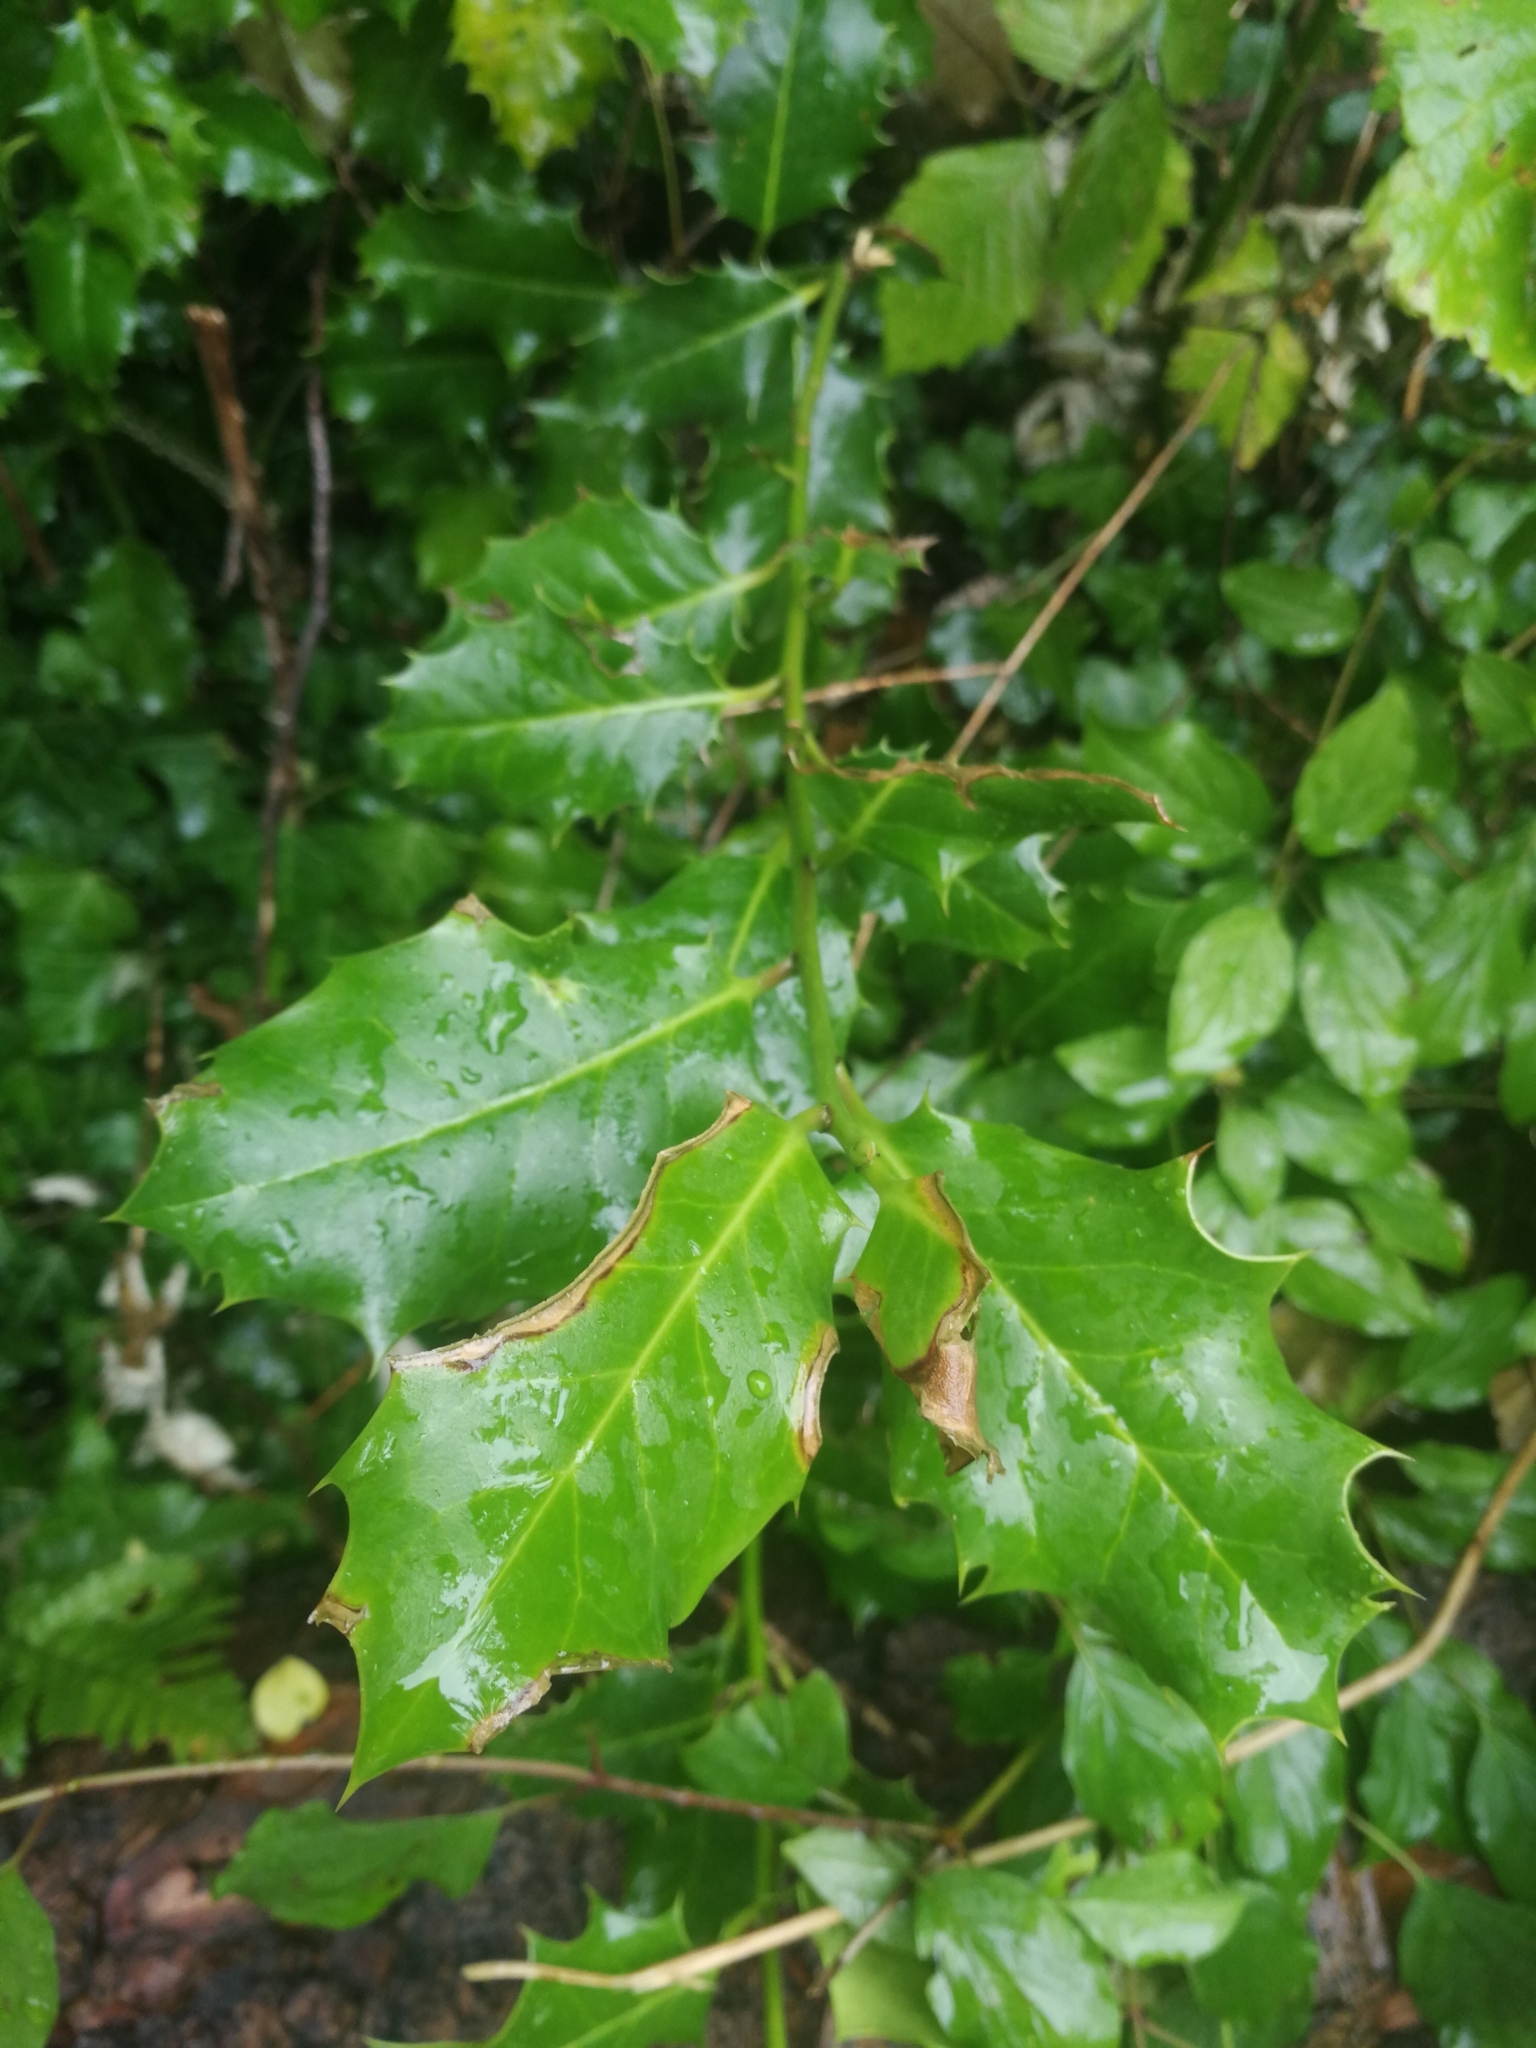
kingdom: Plantae
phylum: Tracheophyta
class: Magnoliopsida
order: Aquifoliales
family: Aquifoliaceae
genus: Ilex
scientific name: Ilex aquifolium
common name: English holly
